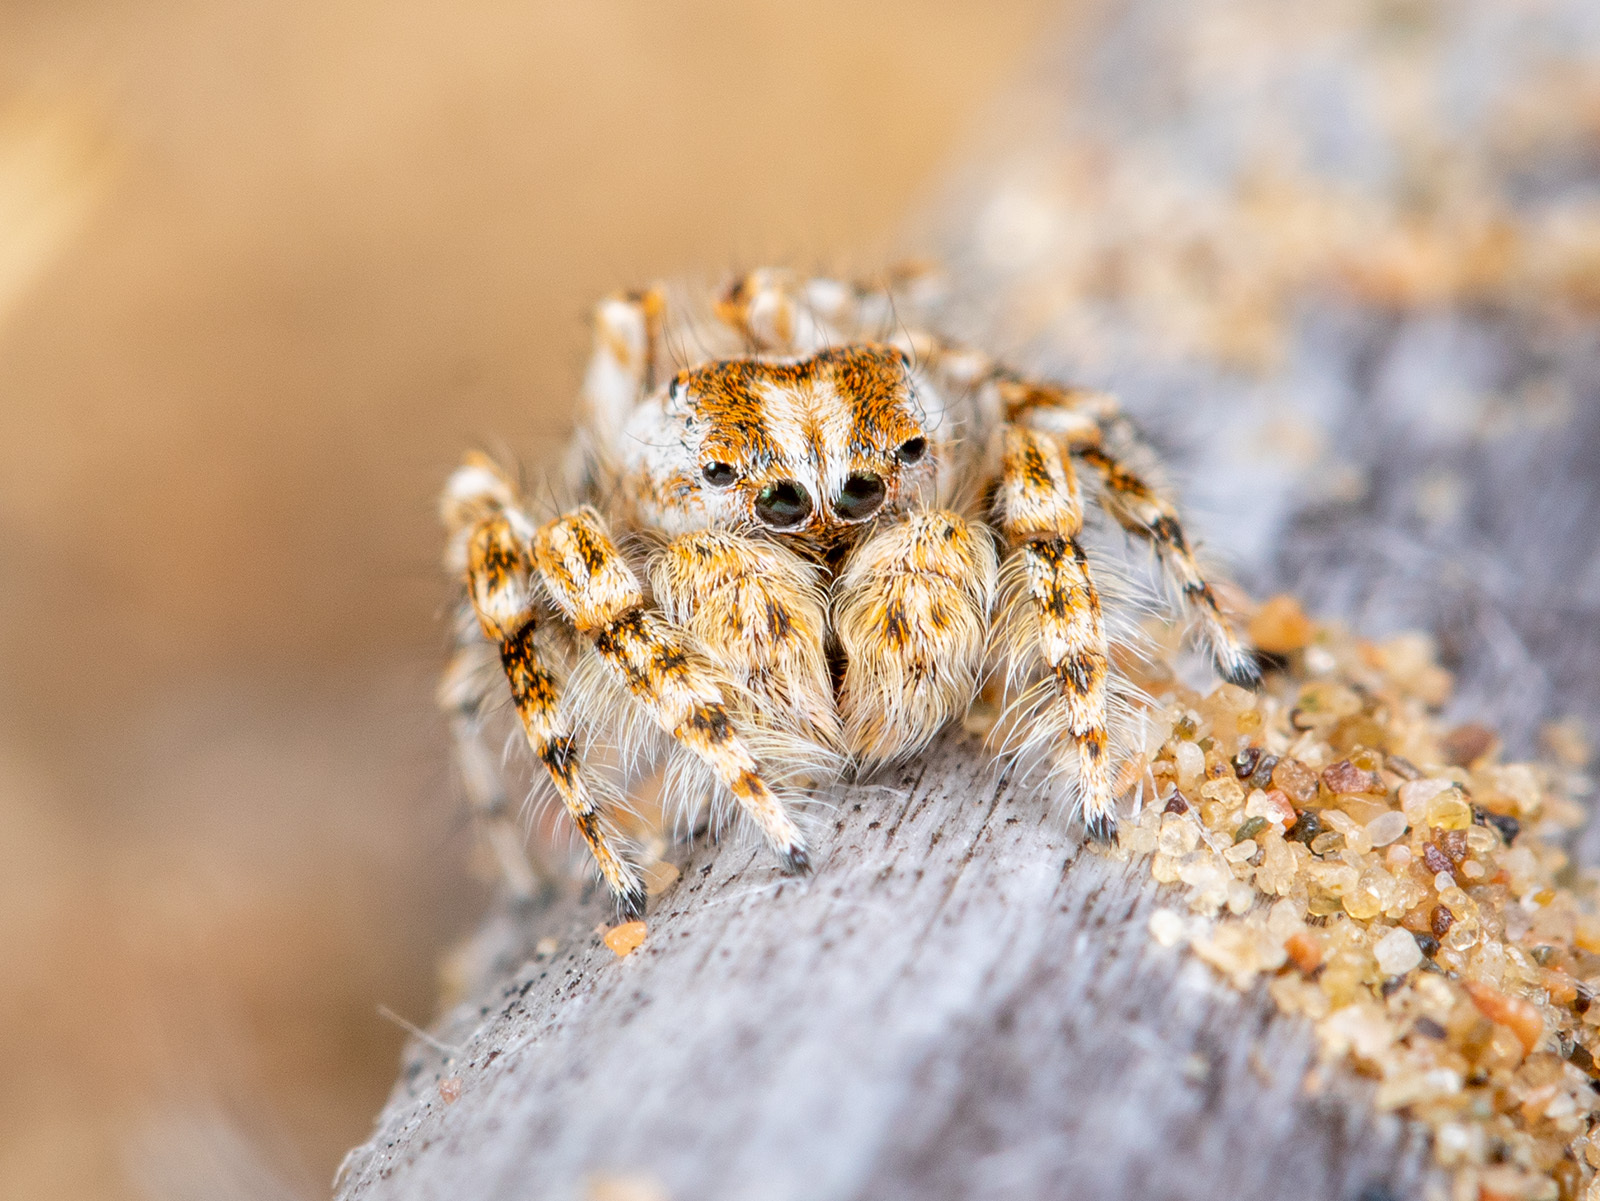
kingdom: Animalia
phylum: Arthropoda
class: Arachnida
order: Araneae
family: Salticidae
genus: Yllenus
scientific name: Yllenus turkestanicus
